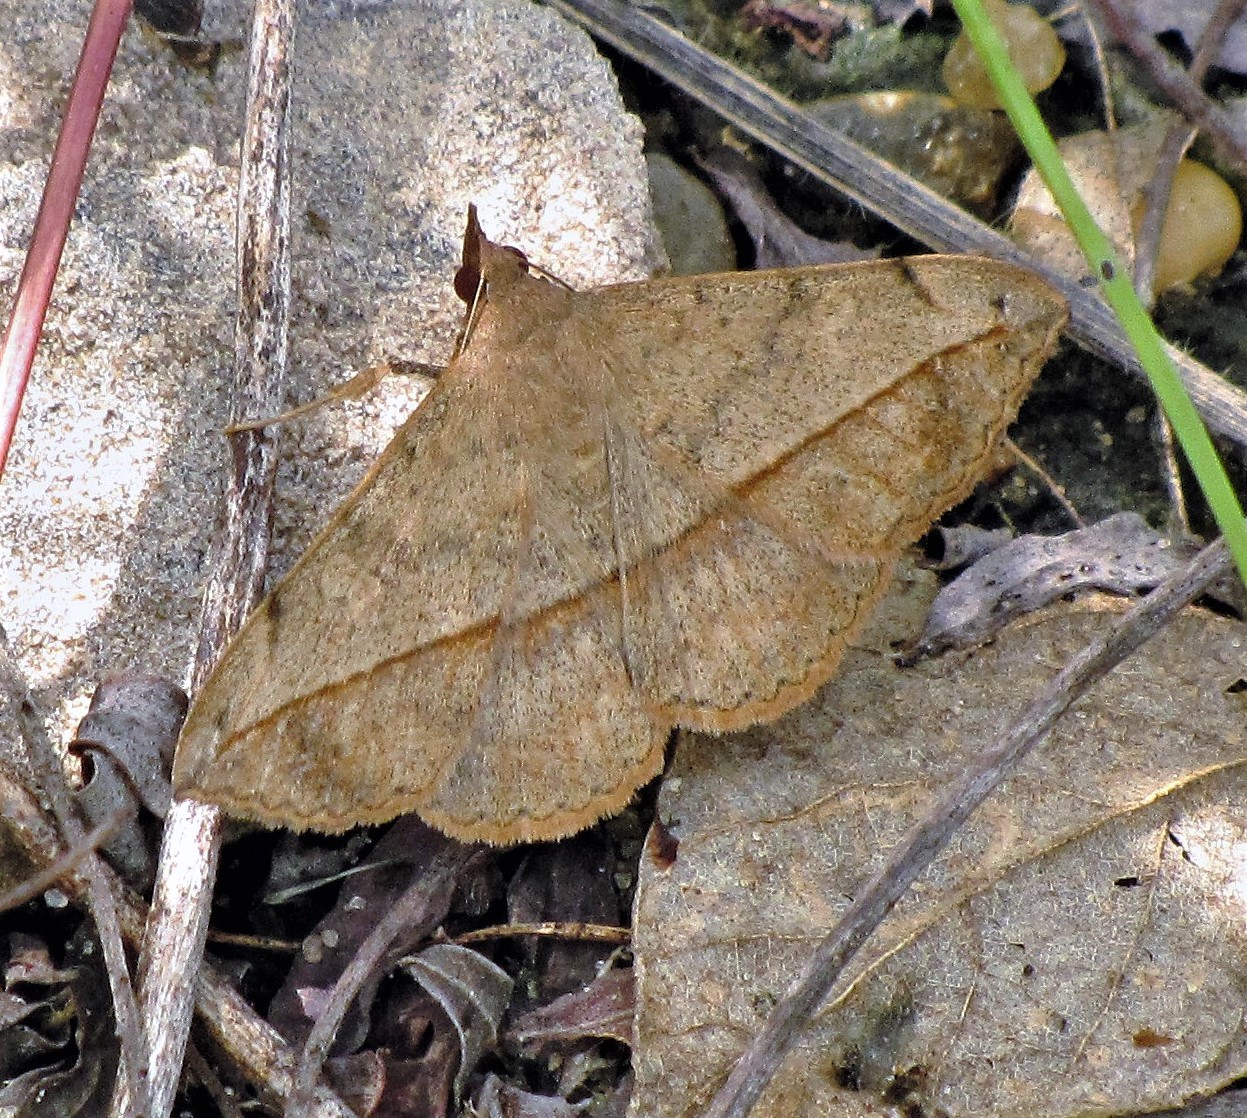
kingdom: Animalia
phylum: Arthropoda
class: Insecta
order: Lepidoptera
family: Erebidae
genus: Anticarsia
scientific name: Anticarsia gemmatalis
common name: Cutworm moth
